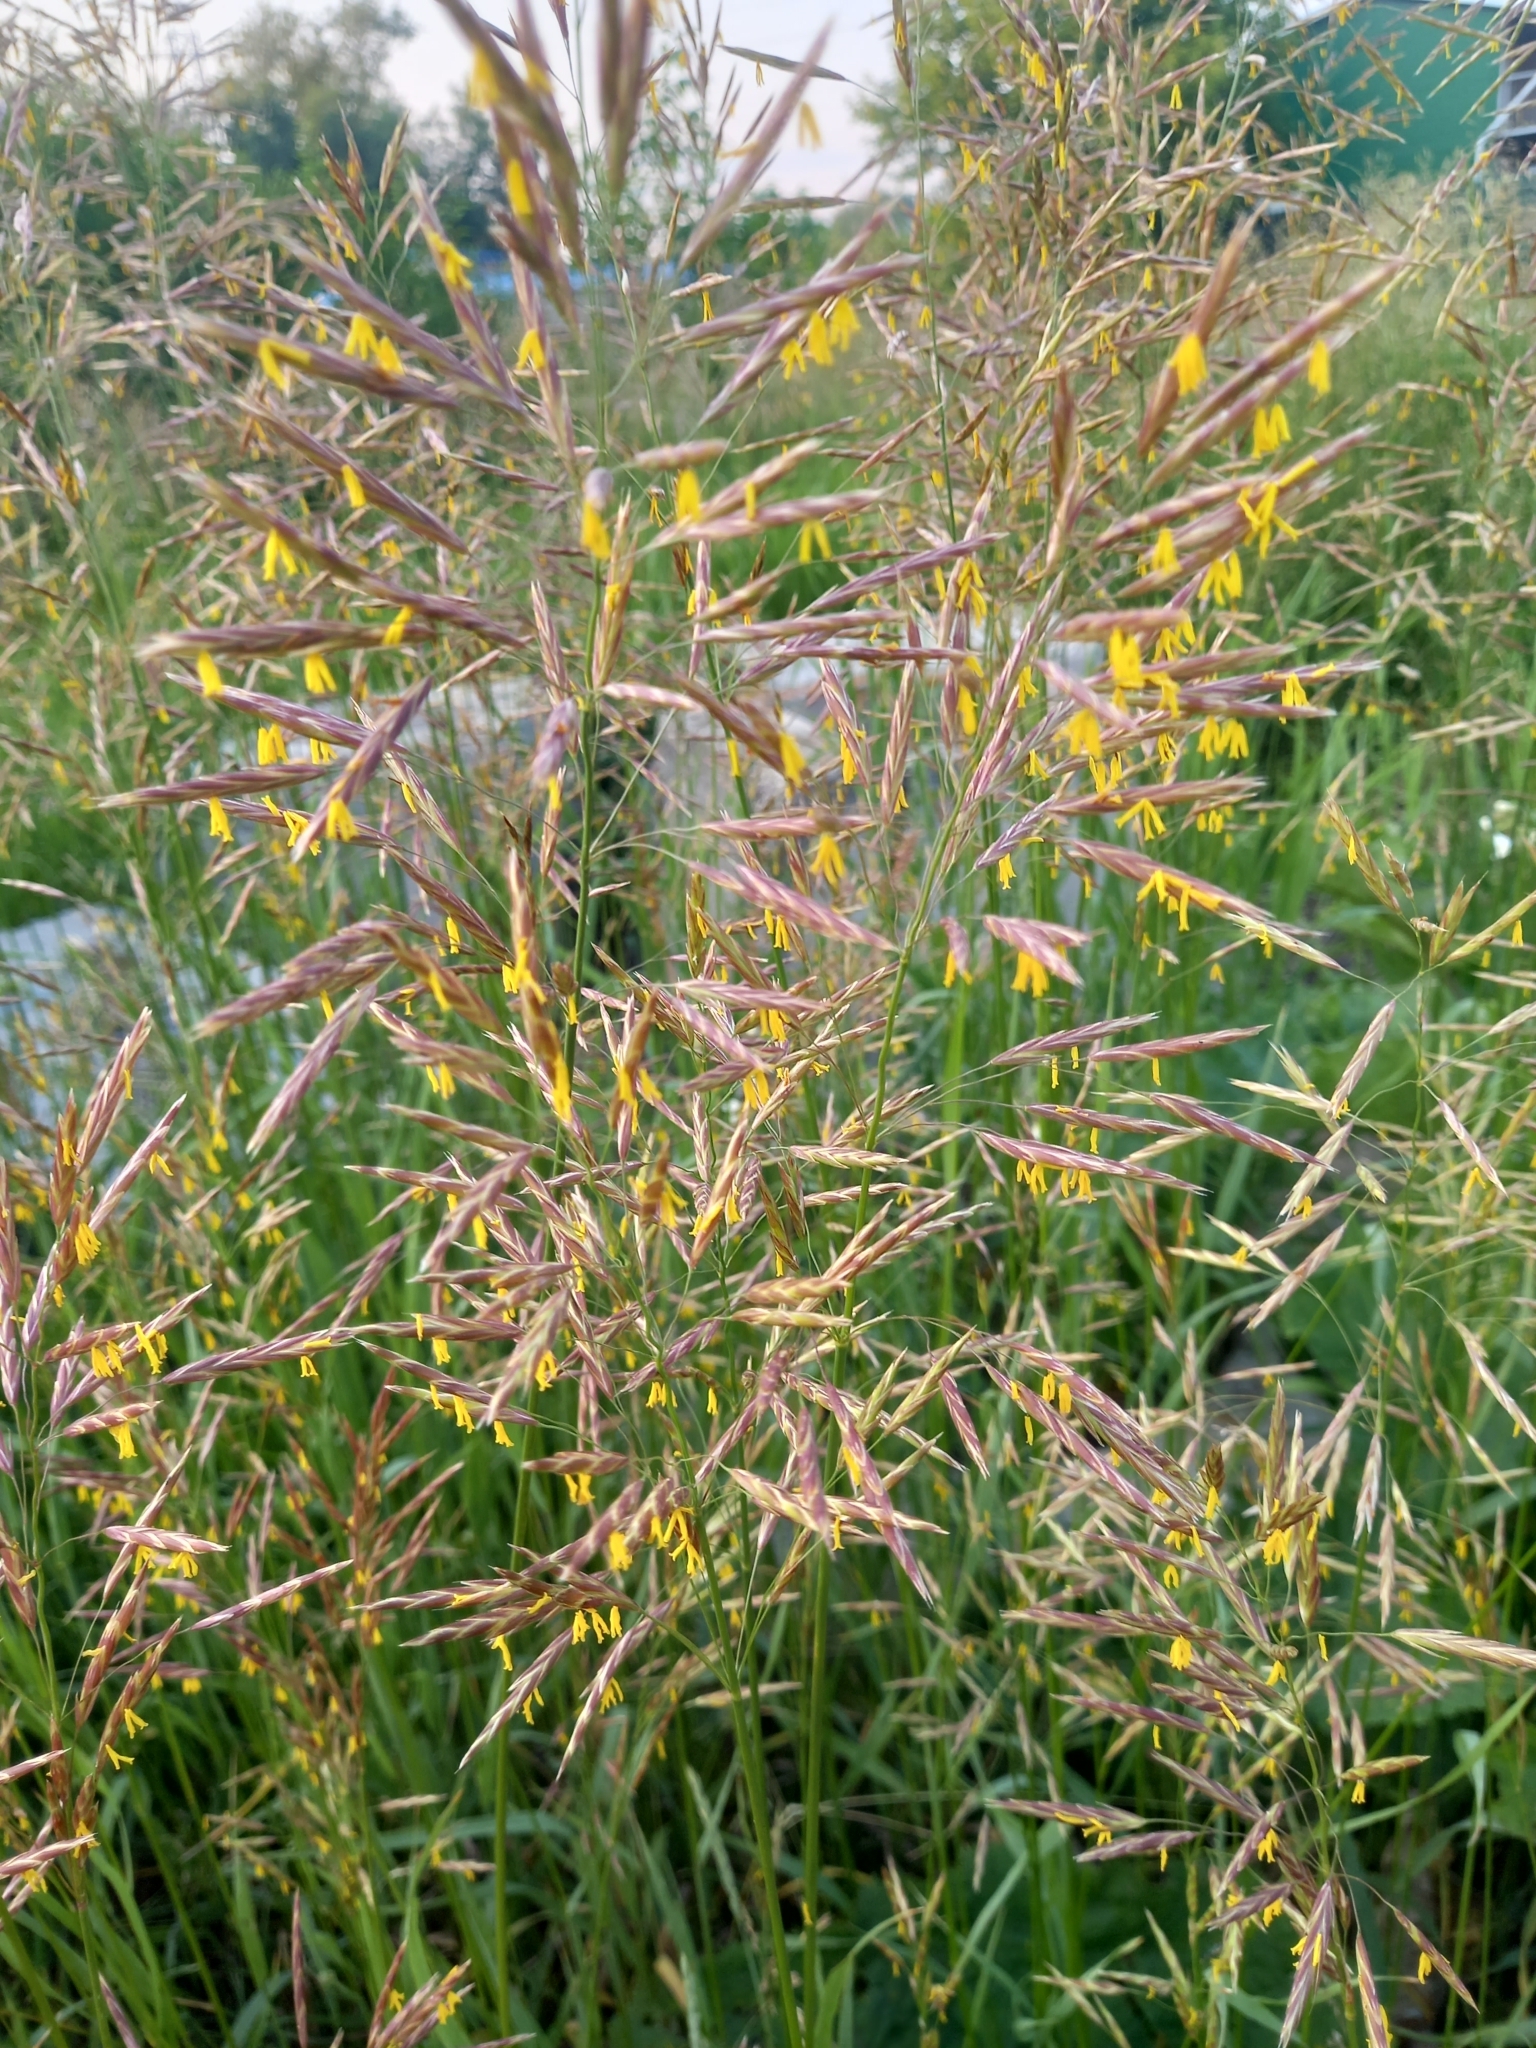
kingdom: Plantae
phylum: Tracheophyta
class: Liliopsida
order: Poales
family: Poaceae
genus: Bromus
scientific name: Bromus inermis
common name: Smooth brome
